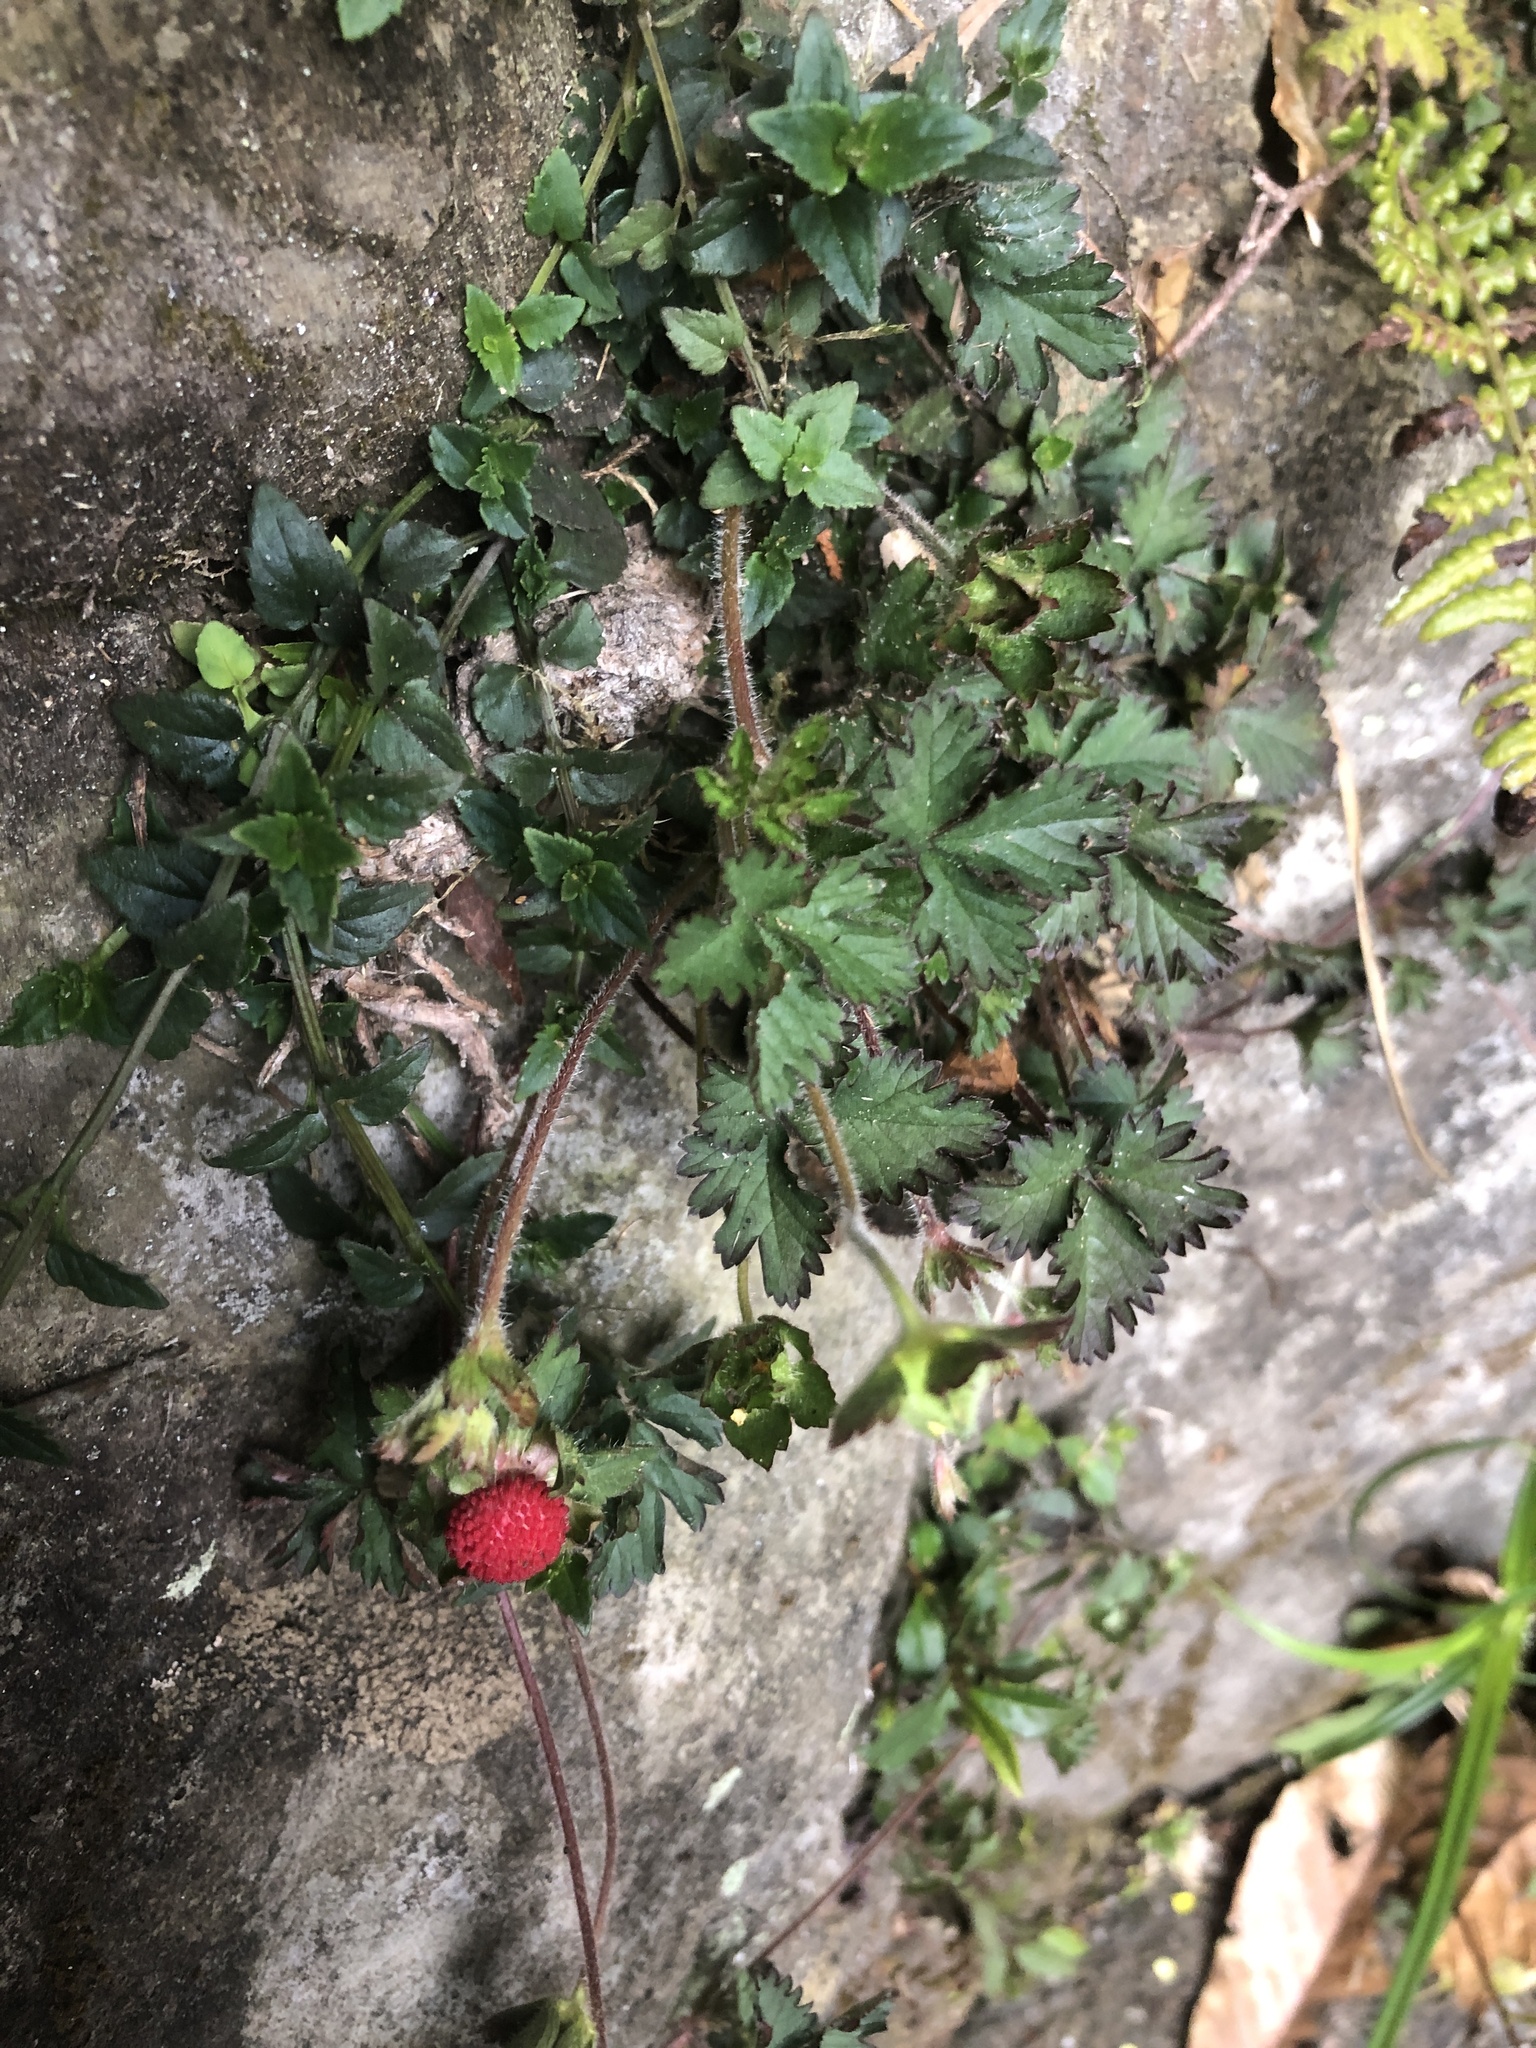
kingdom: Plantae
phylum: Tracheophyta
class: Magnoliopsida
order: Rosales
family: Rosaceae
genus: Potentilla
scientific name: Potentilla wallichiana
